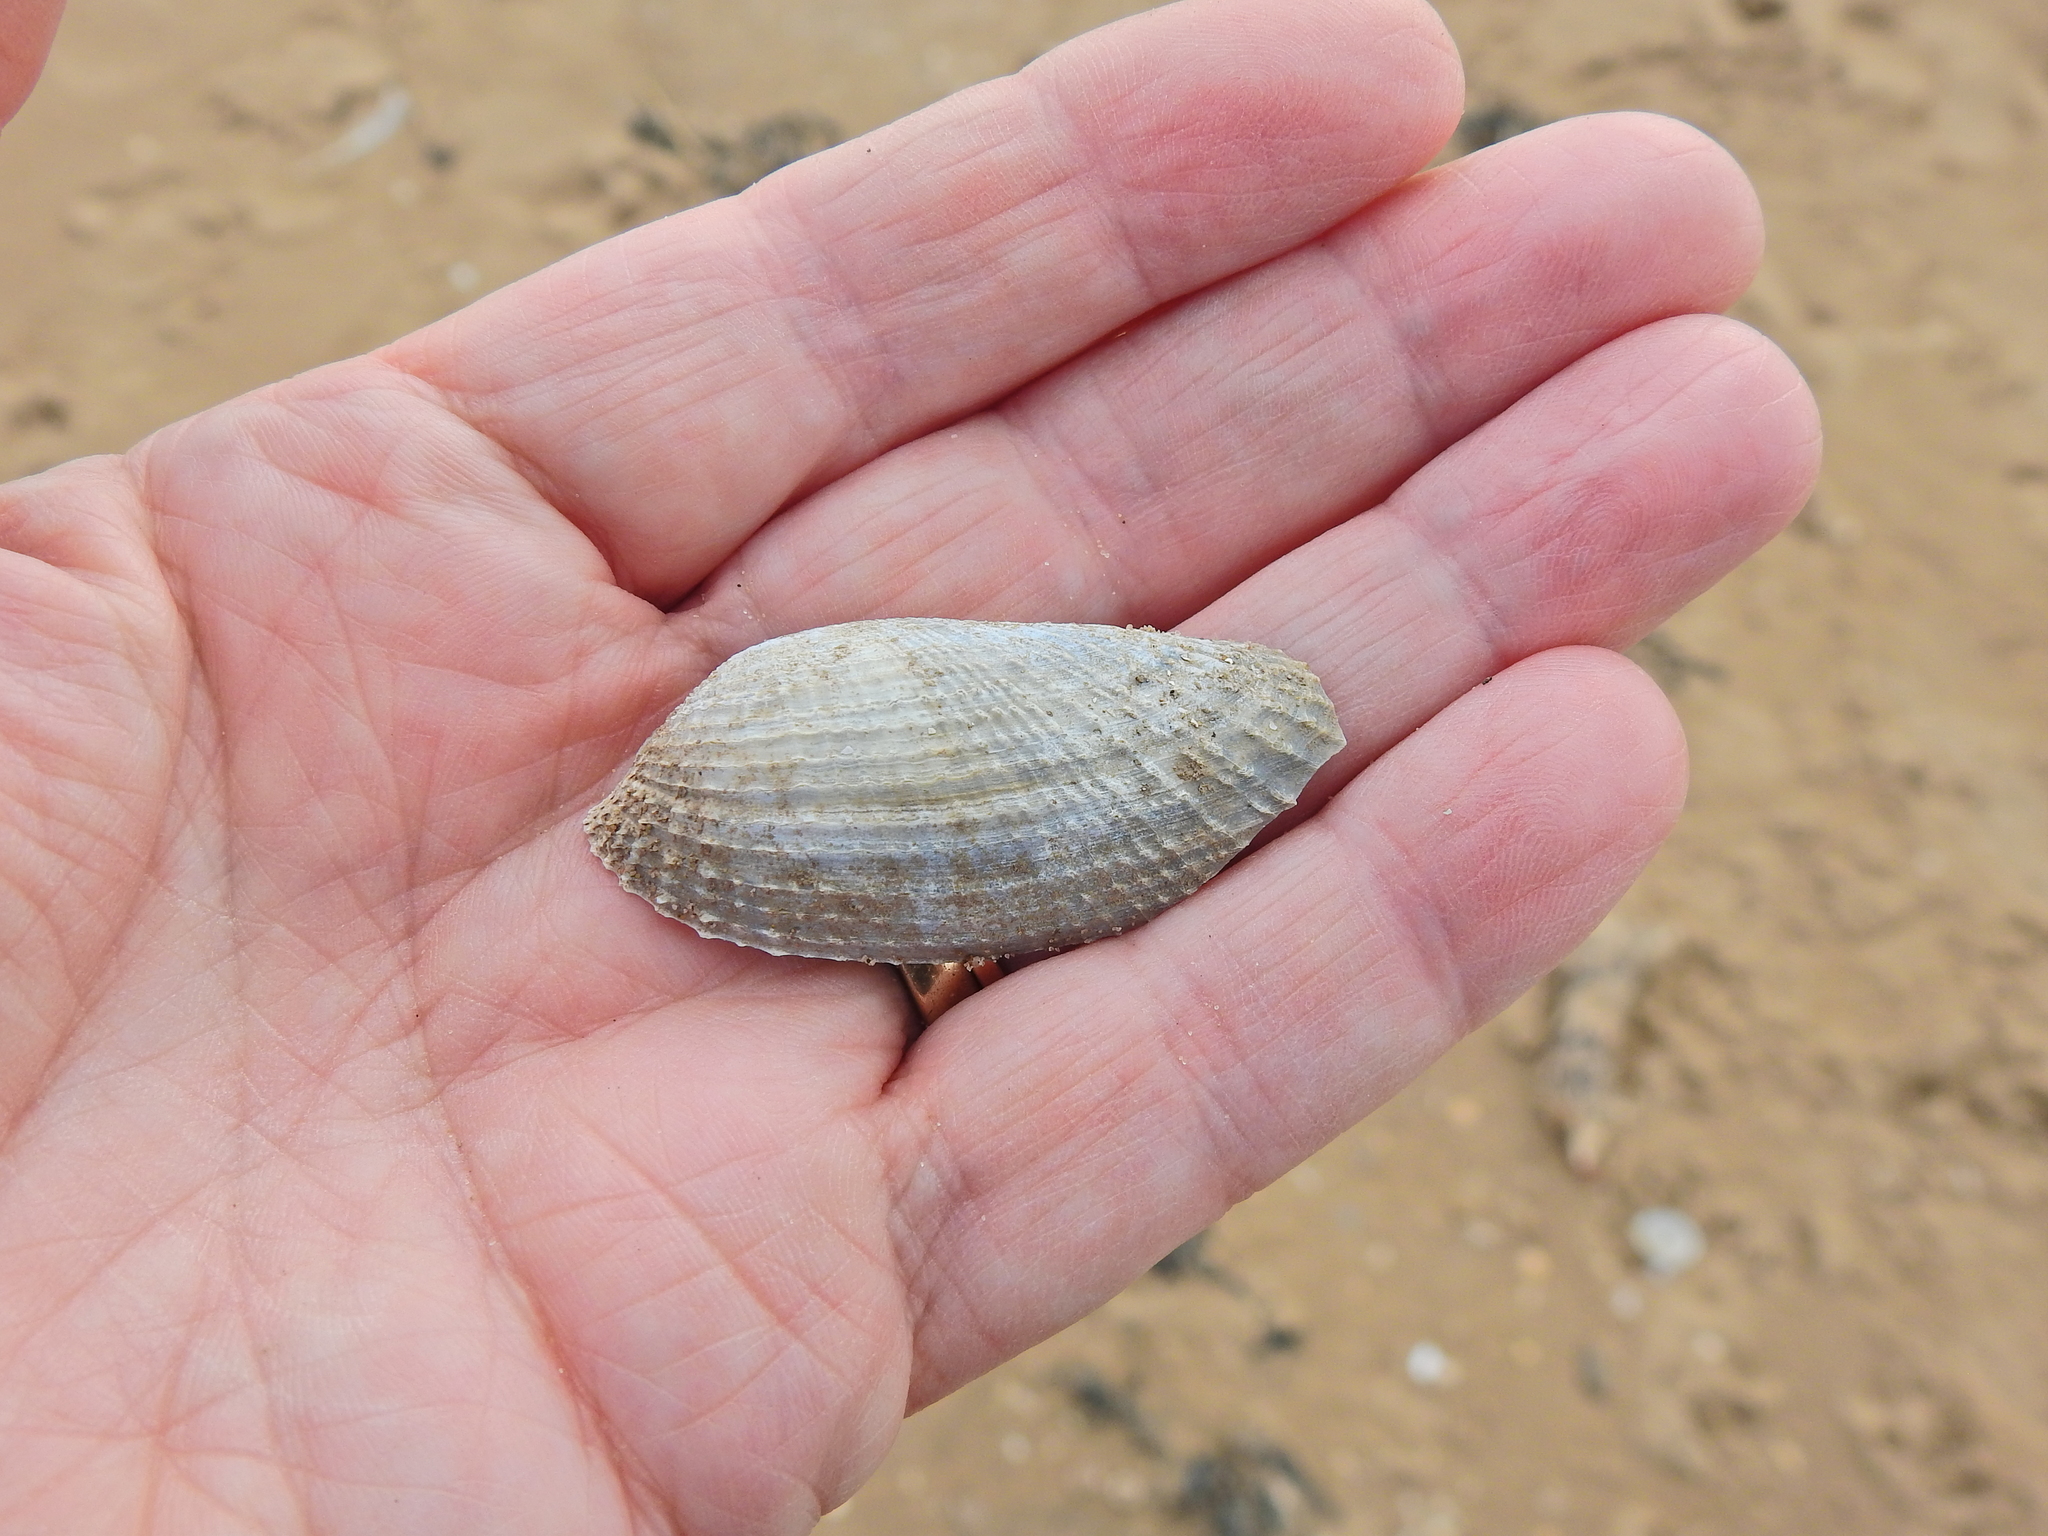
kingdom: Animalia
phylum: Mollusca
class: Bivalvia
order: Myida
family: Pholadidae
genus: Barnea
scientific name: Barnea candida
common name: White piddock
